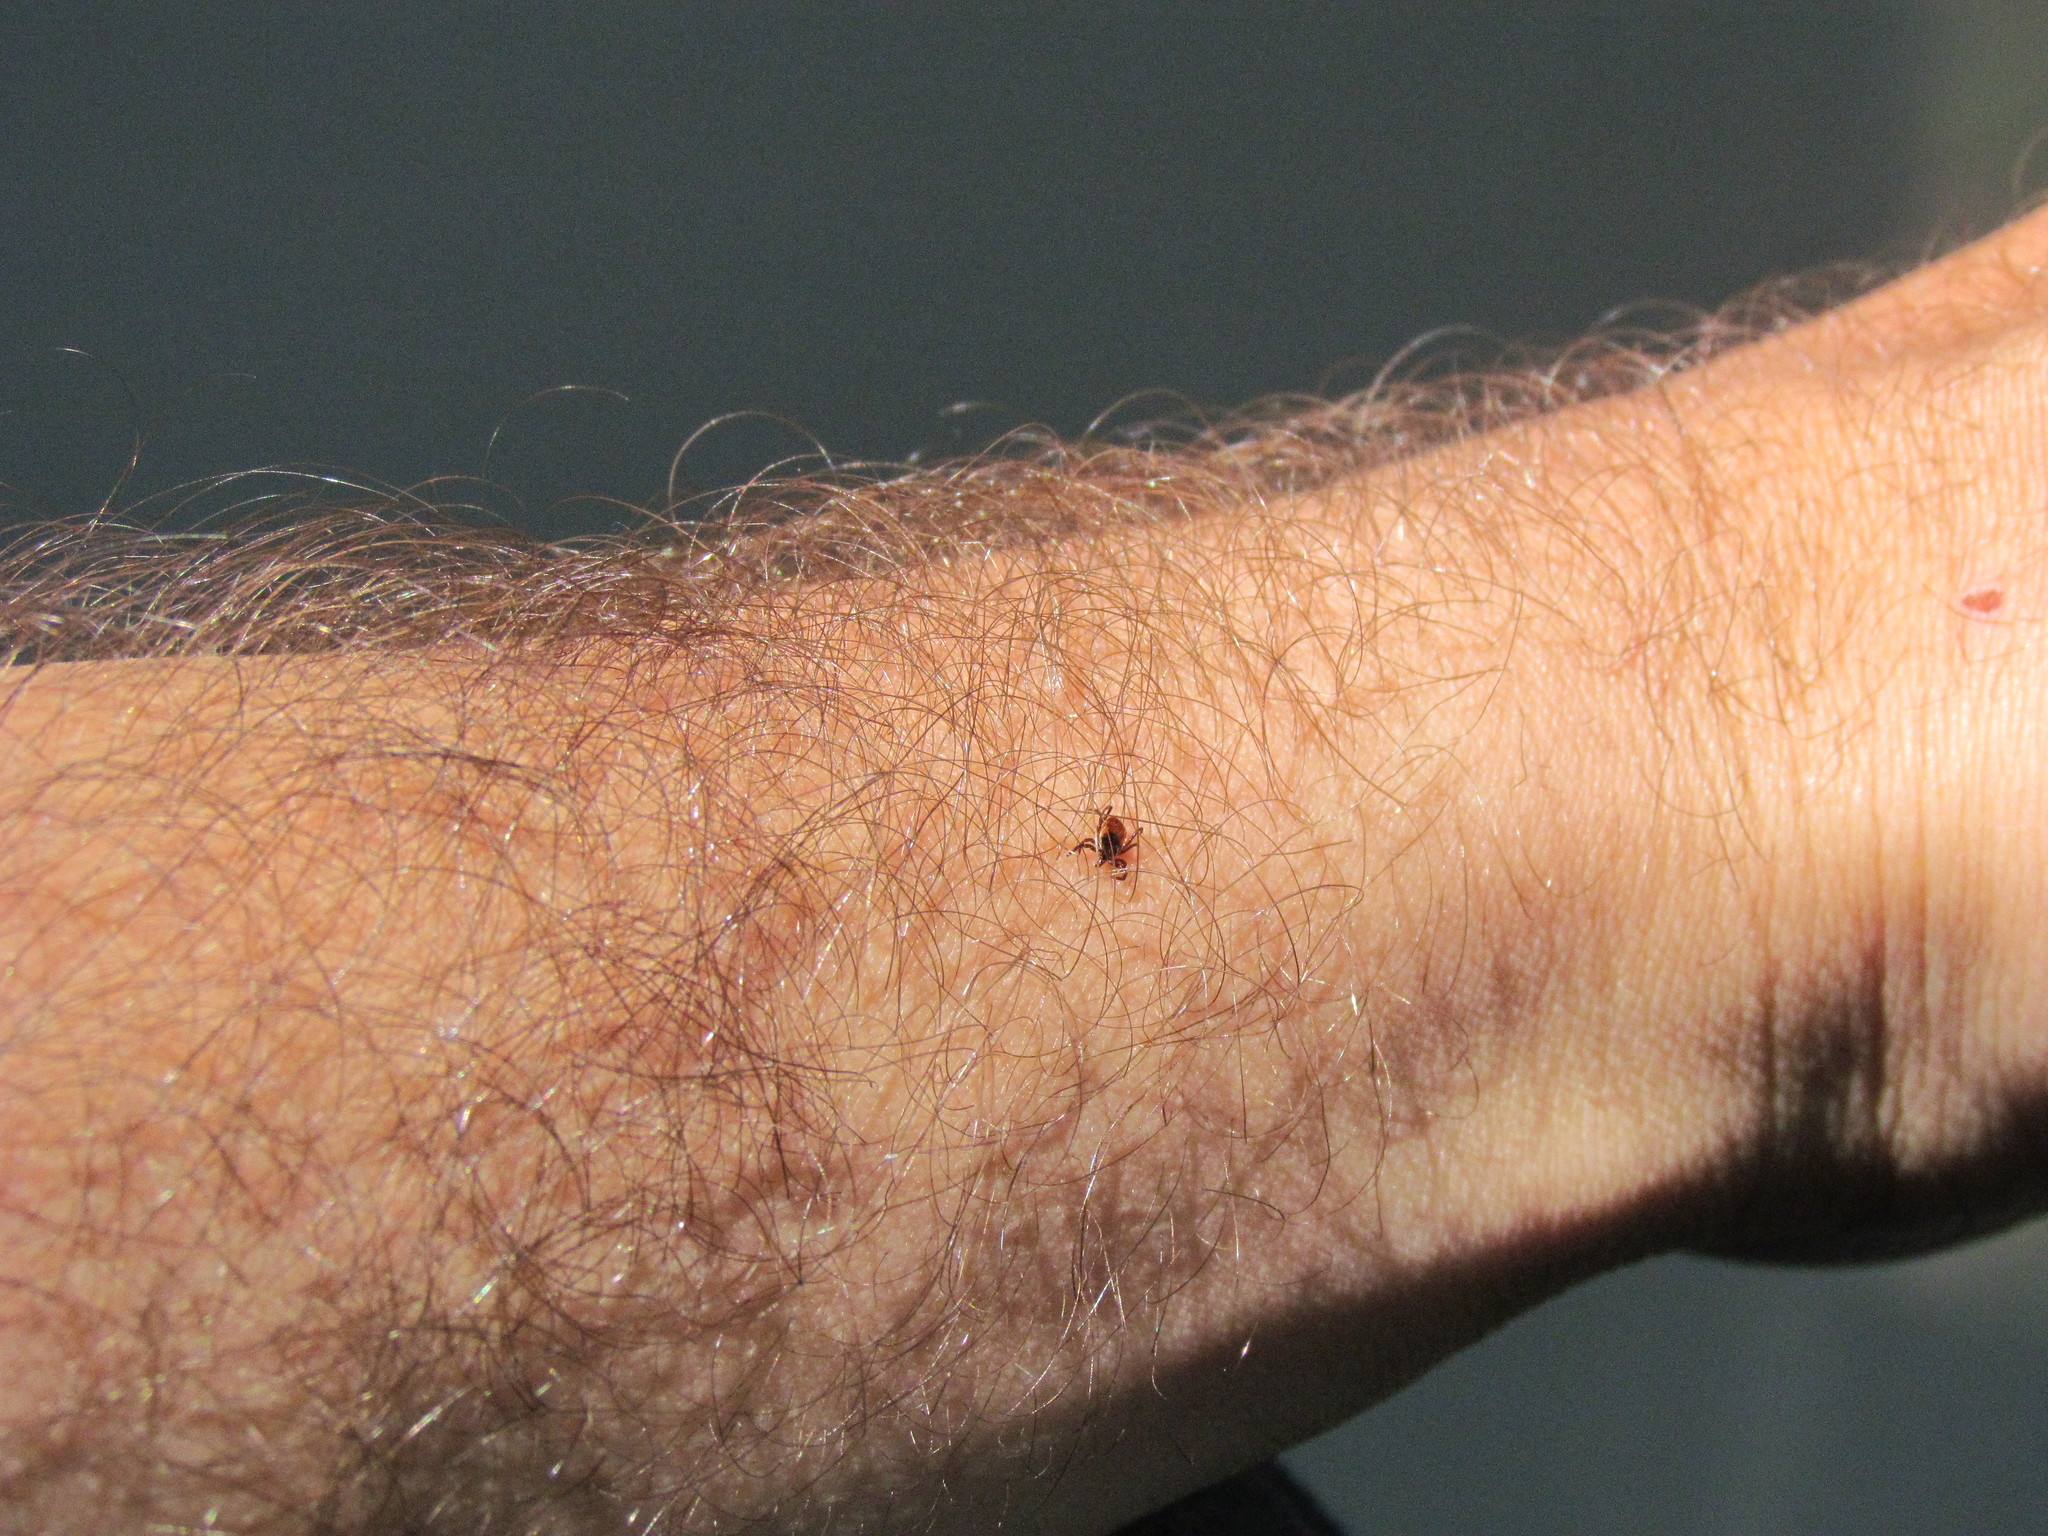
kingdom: Animalia
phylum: Arthropoda
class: Arachnida
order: Ixodida
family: Ixodidae
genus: Ixodes
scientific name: Ixodes scapularis
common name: Black legged tick
